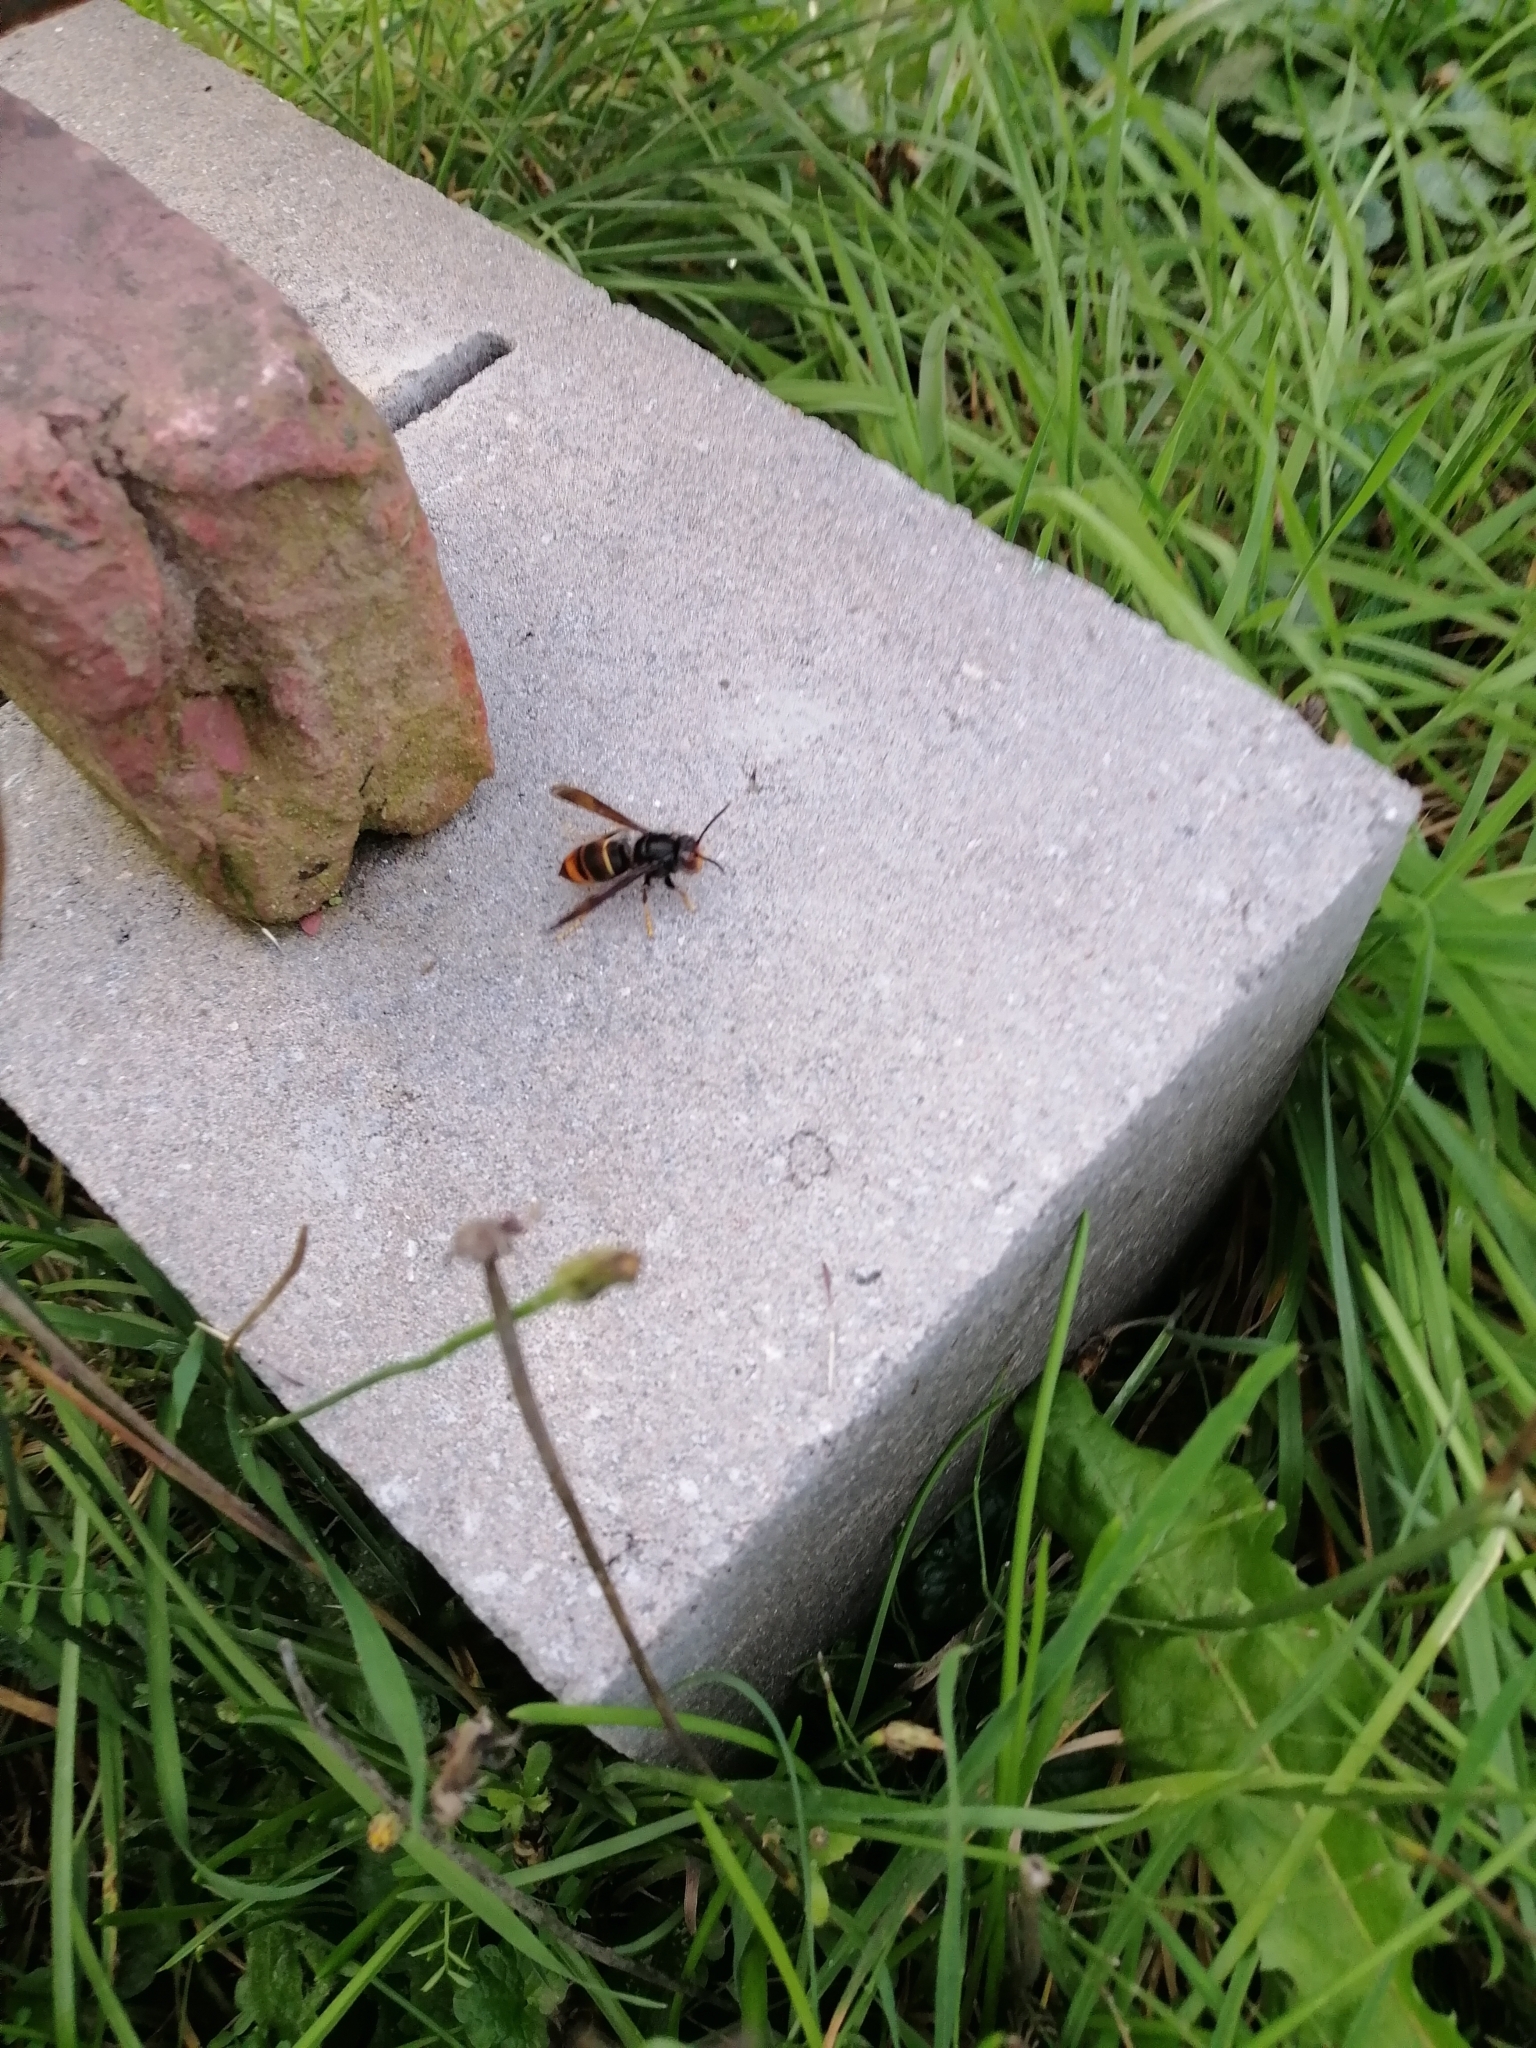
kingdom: Animalia
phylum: Arthropoda
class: Insecta
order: Hymenoptera
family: Vespidae
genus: Vespa
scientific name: Vespa velutina
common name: Asian hornet
